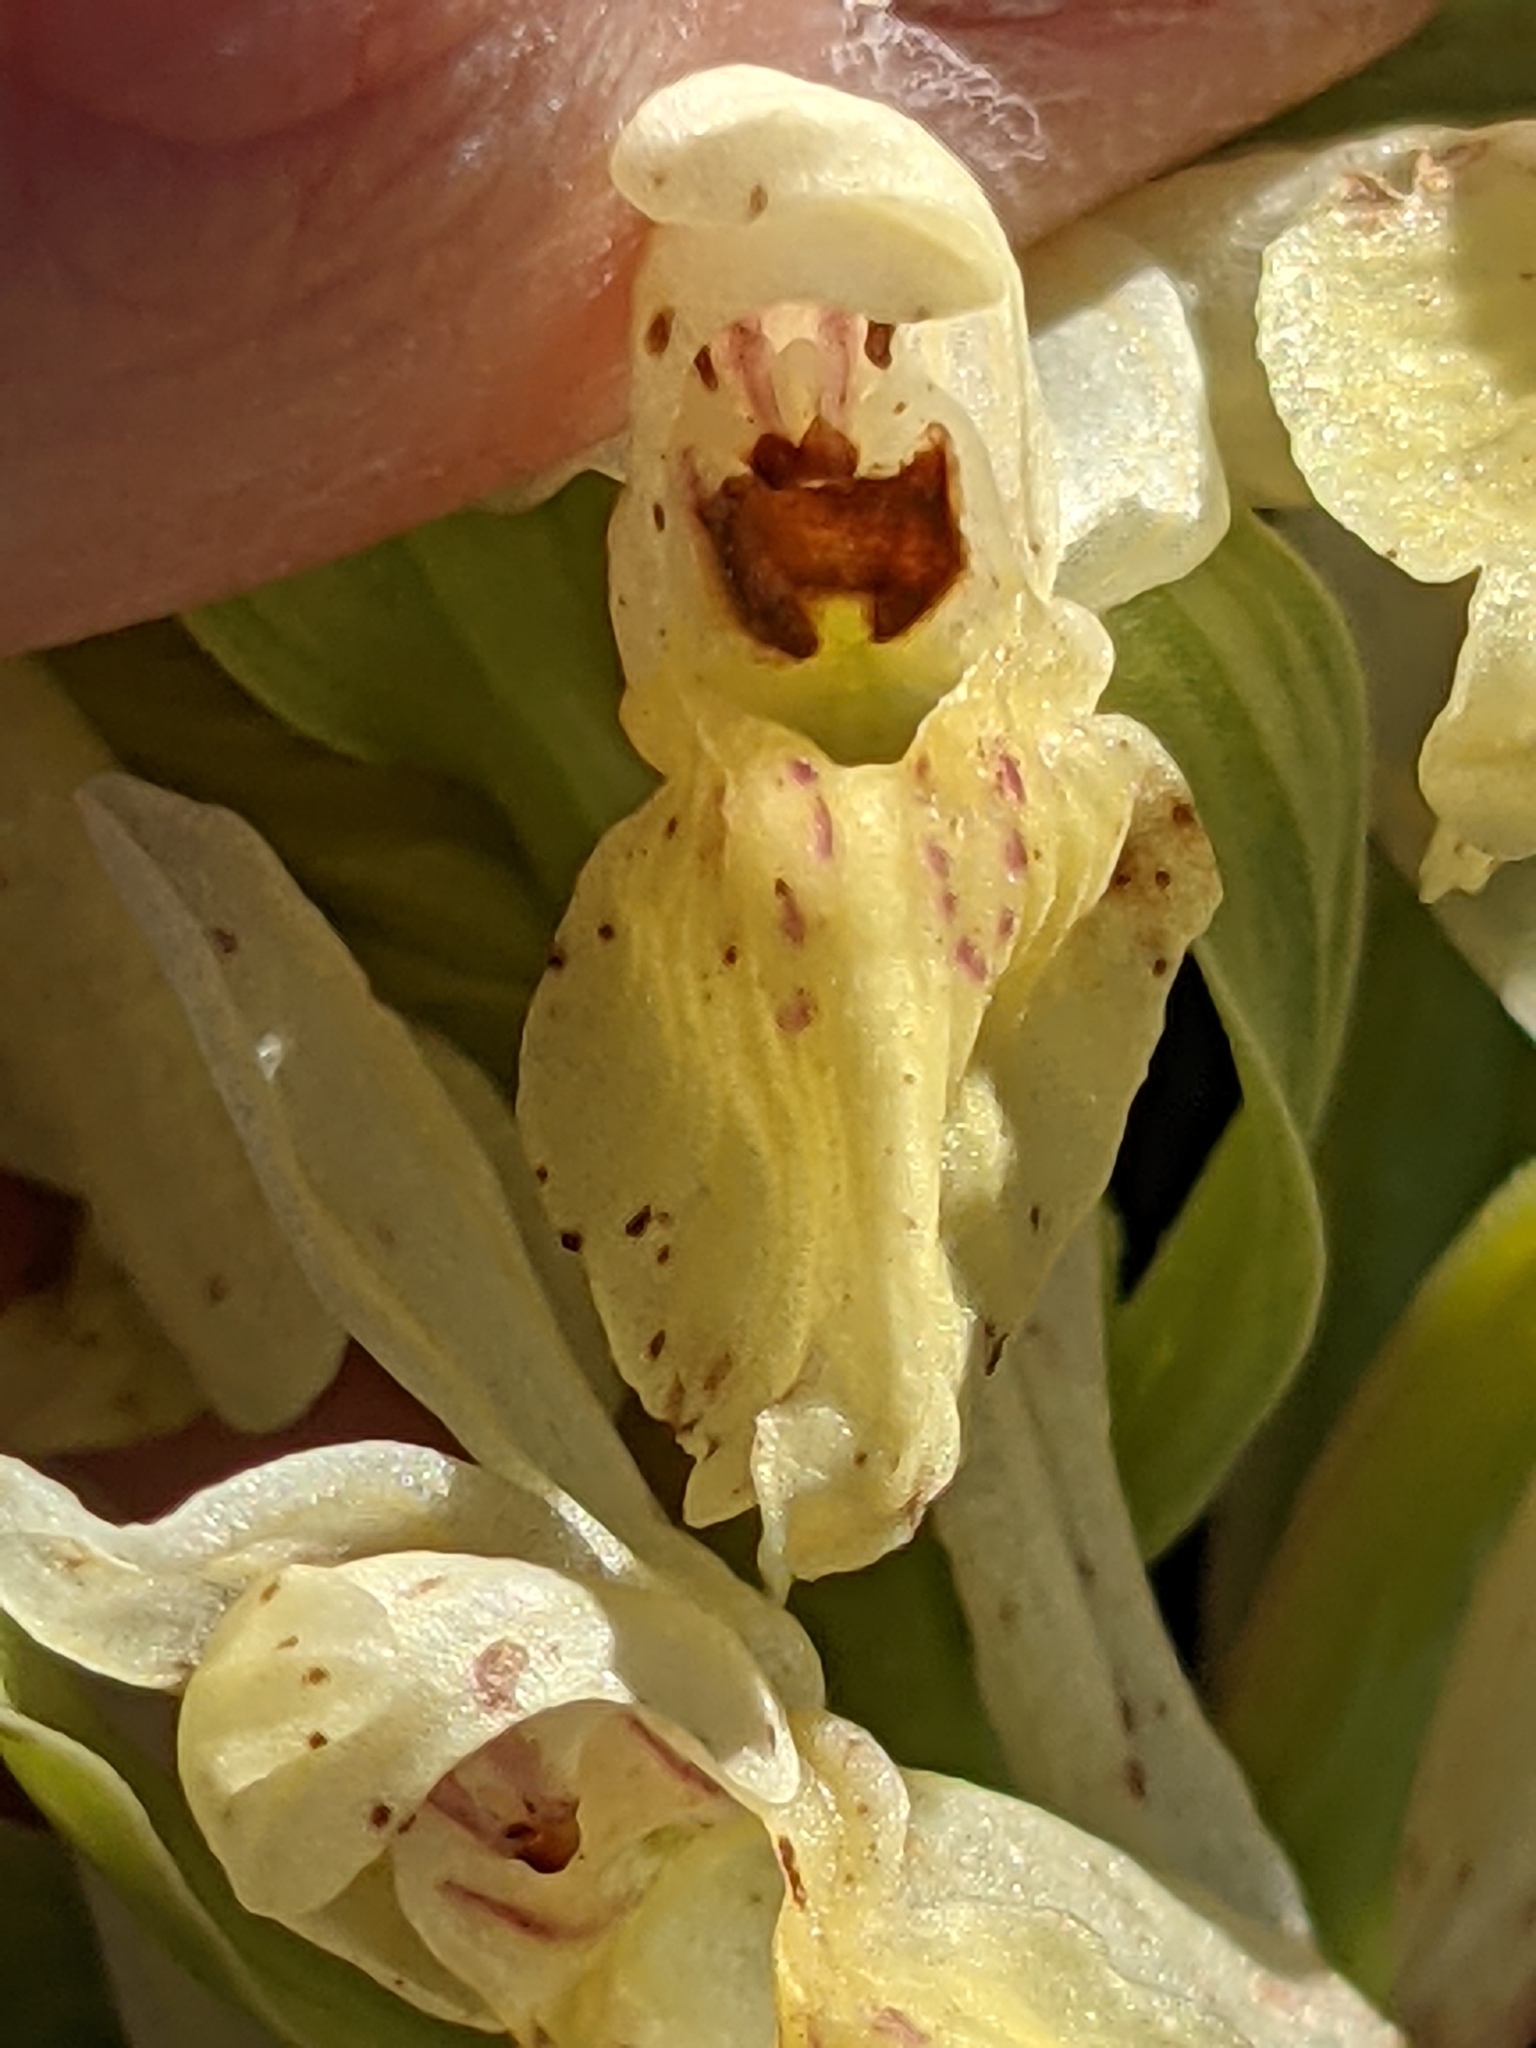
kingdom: Plantae
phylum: Tracheophyta
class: Liliopsida
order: Asparagales
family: Orchidaceae
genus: Dactylorhiza
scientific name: Dactylorhiza sambucina
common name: Elder-flowered orchid
